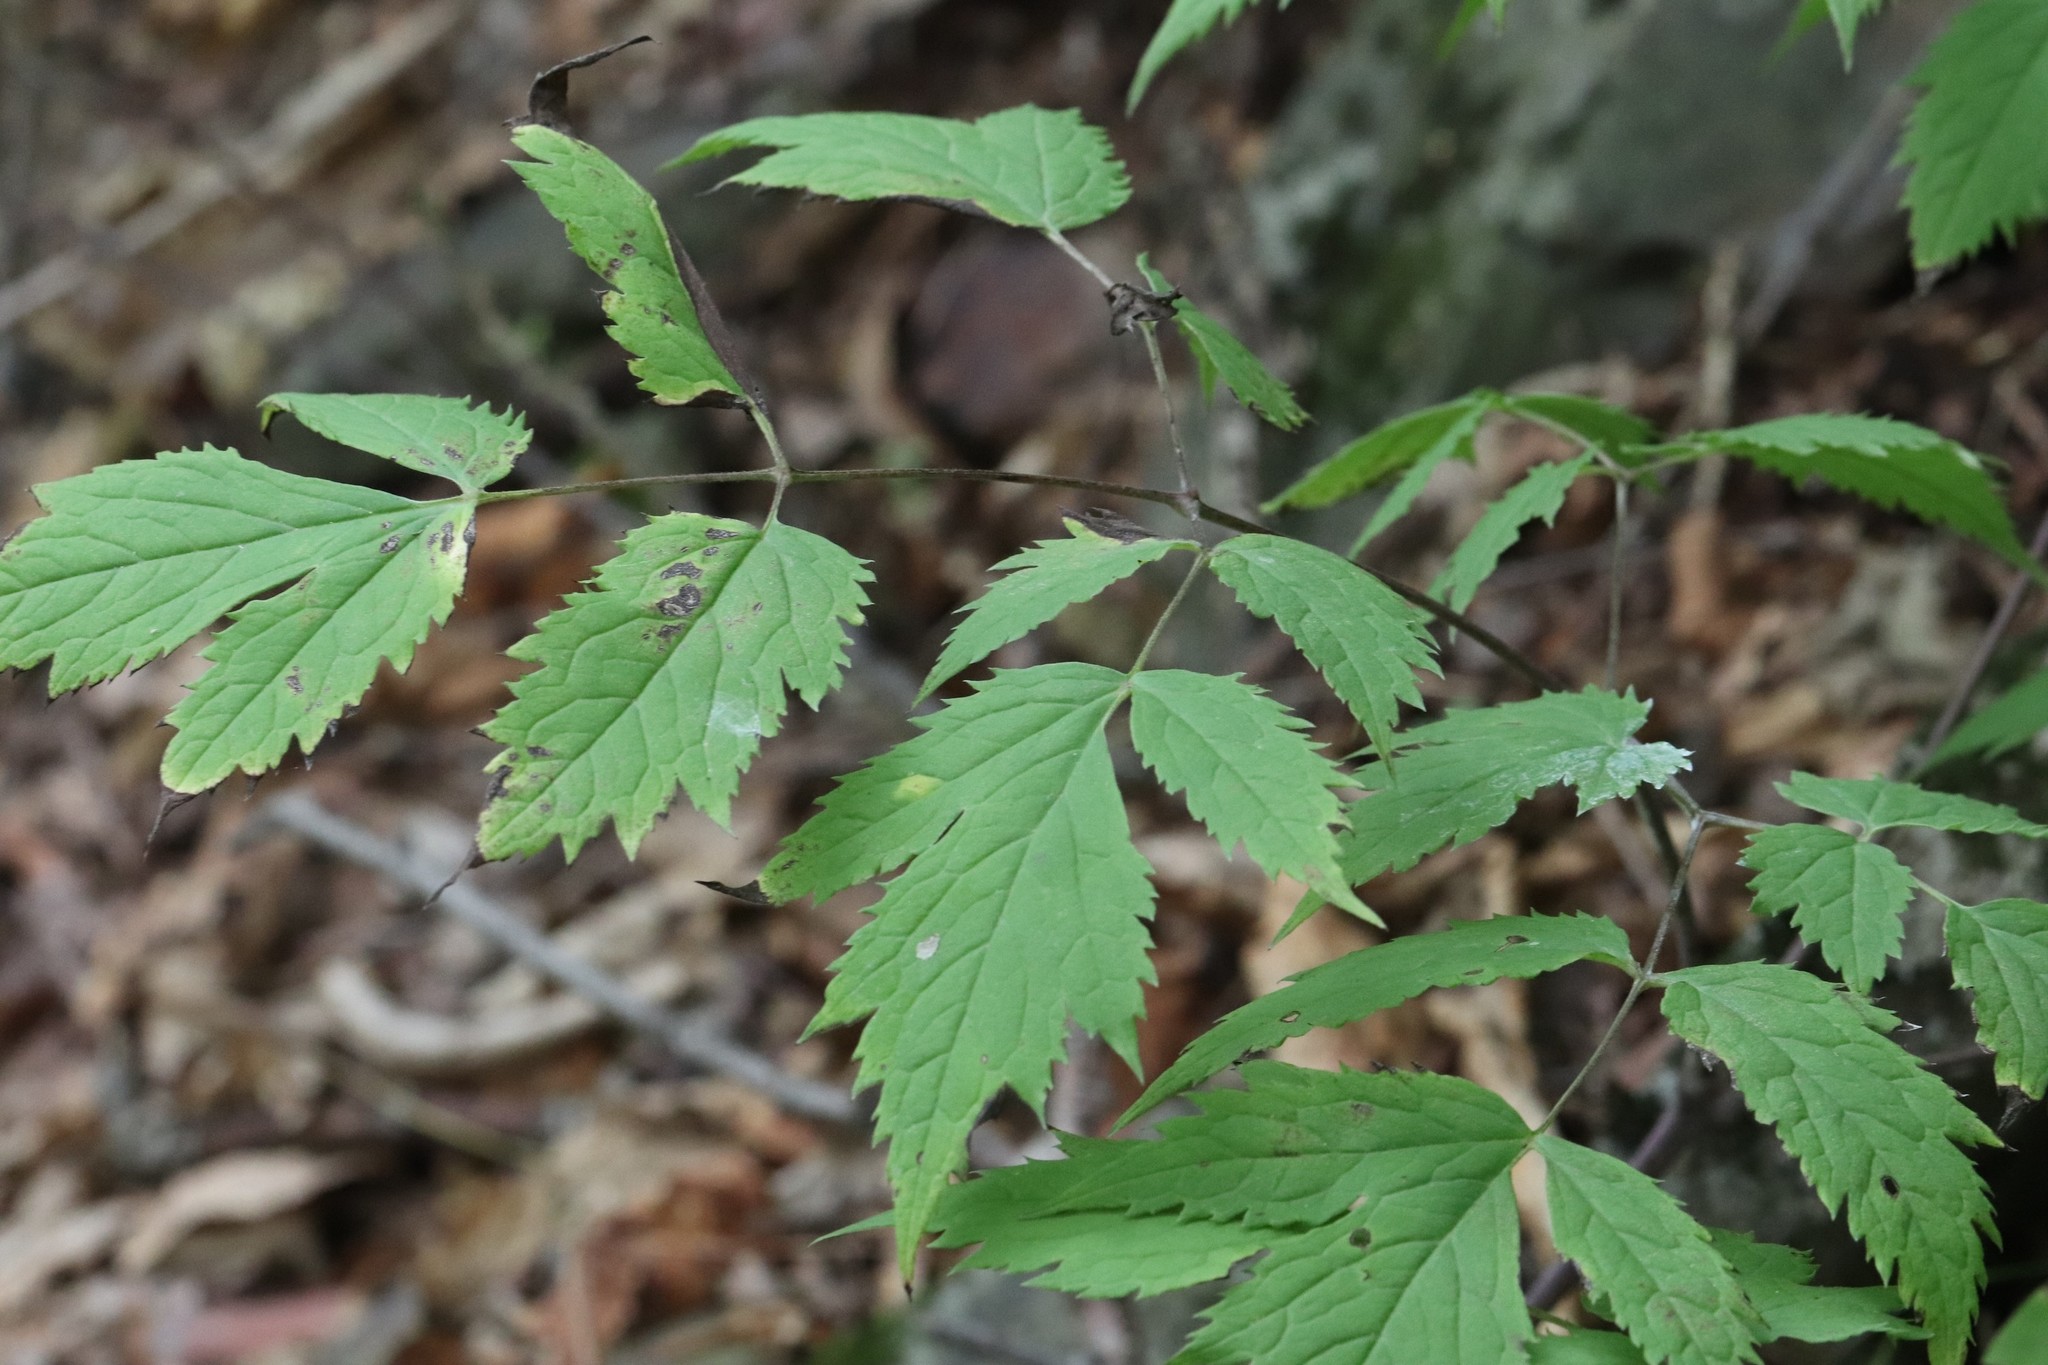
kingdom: Plantae
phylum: Tracheophyta
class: Magnoliopsida
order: Ranunculales
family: Ranunculaceae
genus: Actaea
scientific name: Actaea spicata
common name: Baneberry
